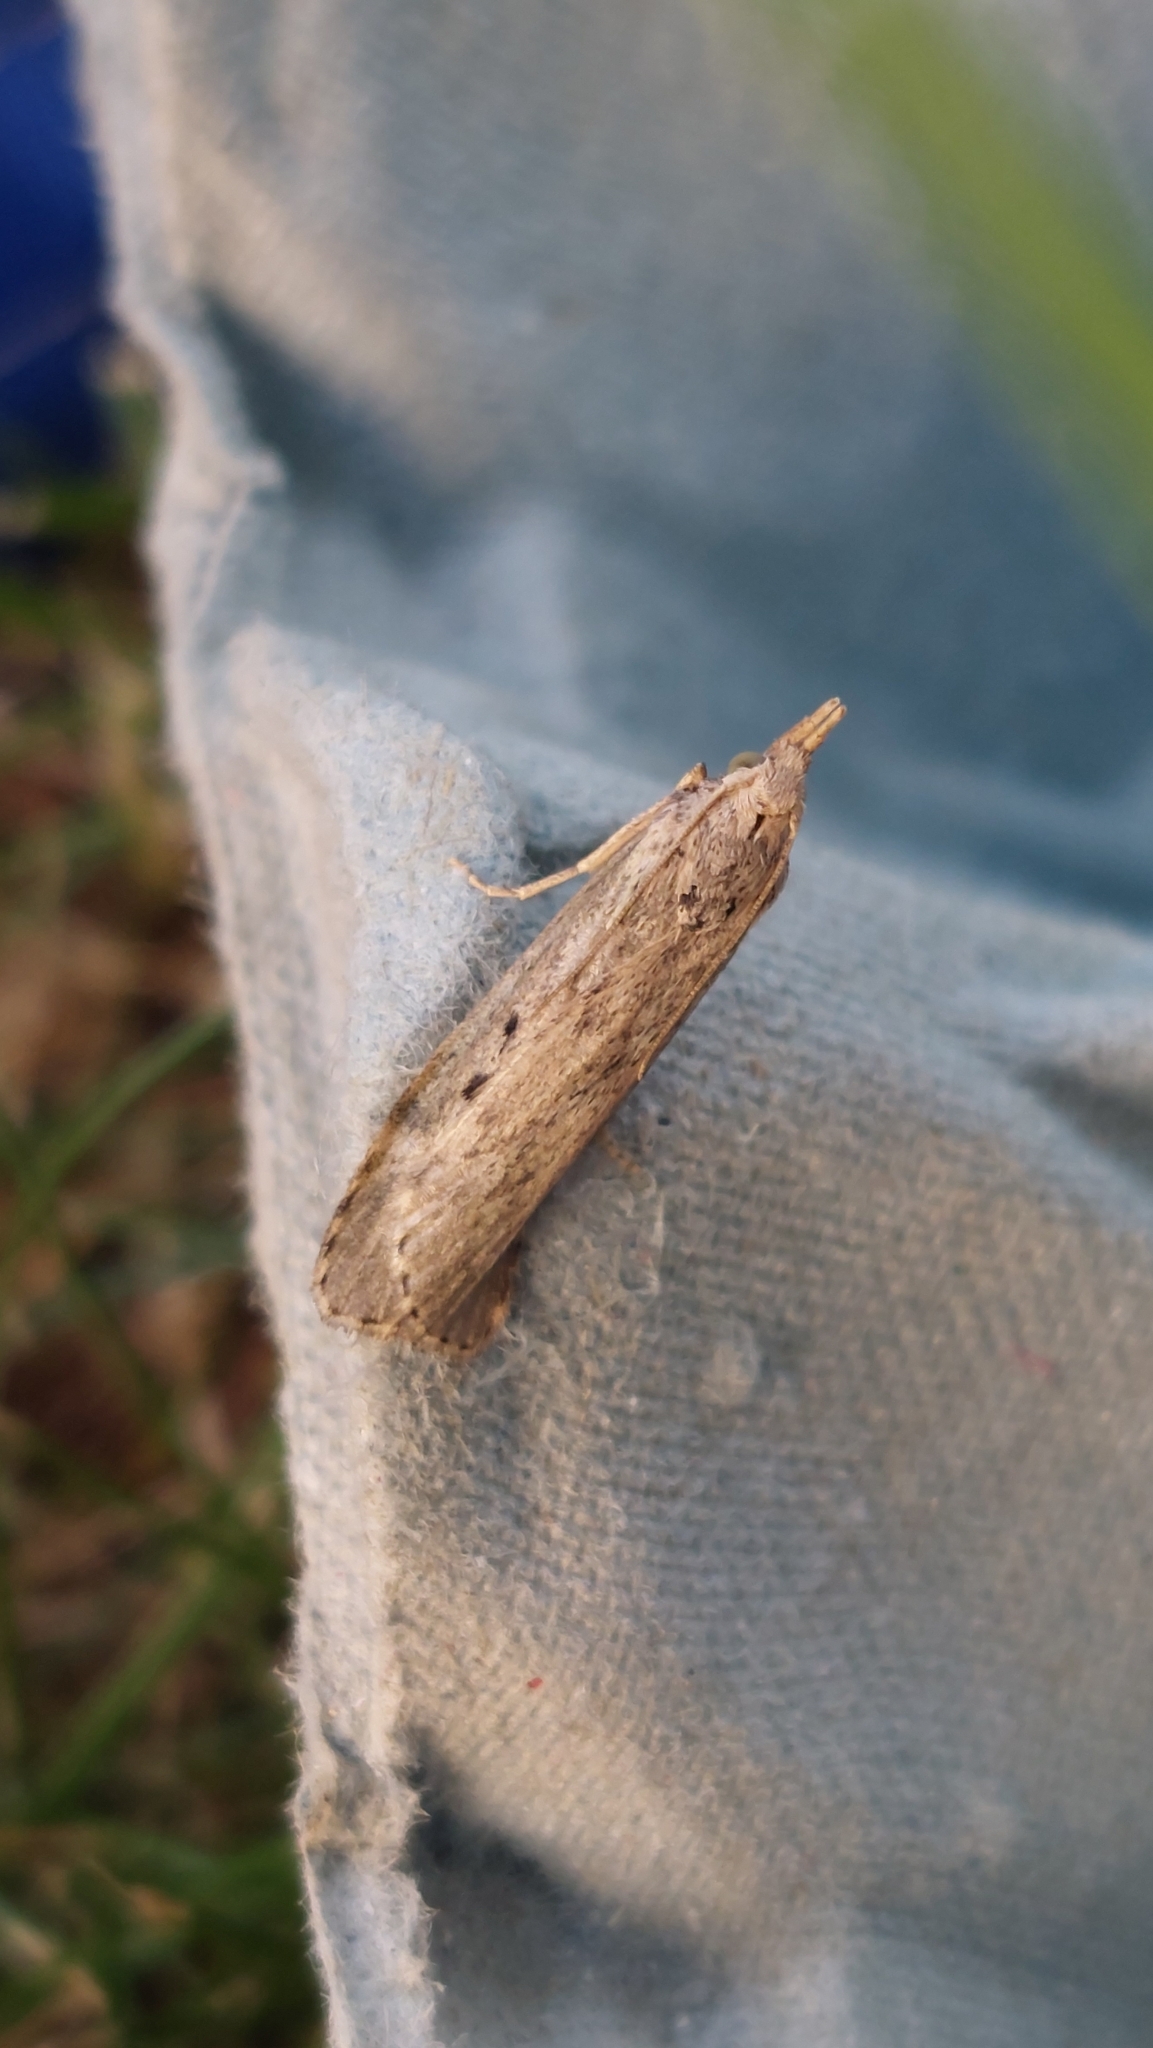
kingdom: Animalia
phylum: Arthropoda
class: Insecta
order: Lepidoptera
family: Pyralidae
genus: Aphomia
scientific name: Aphomia sociella
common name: Bee moth
